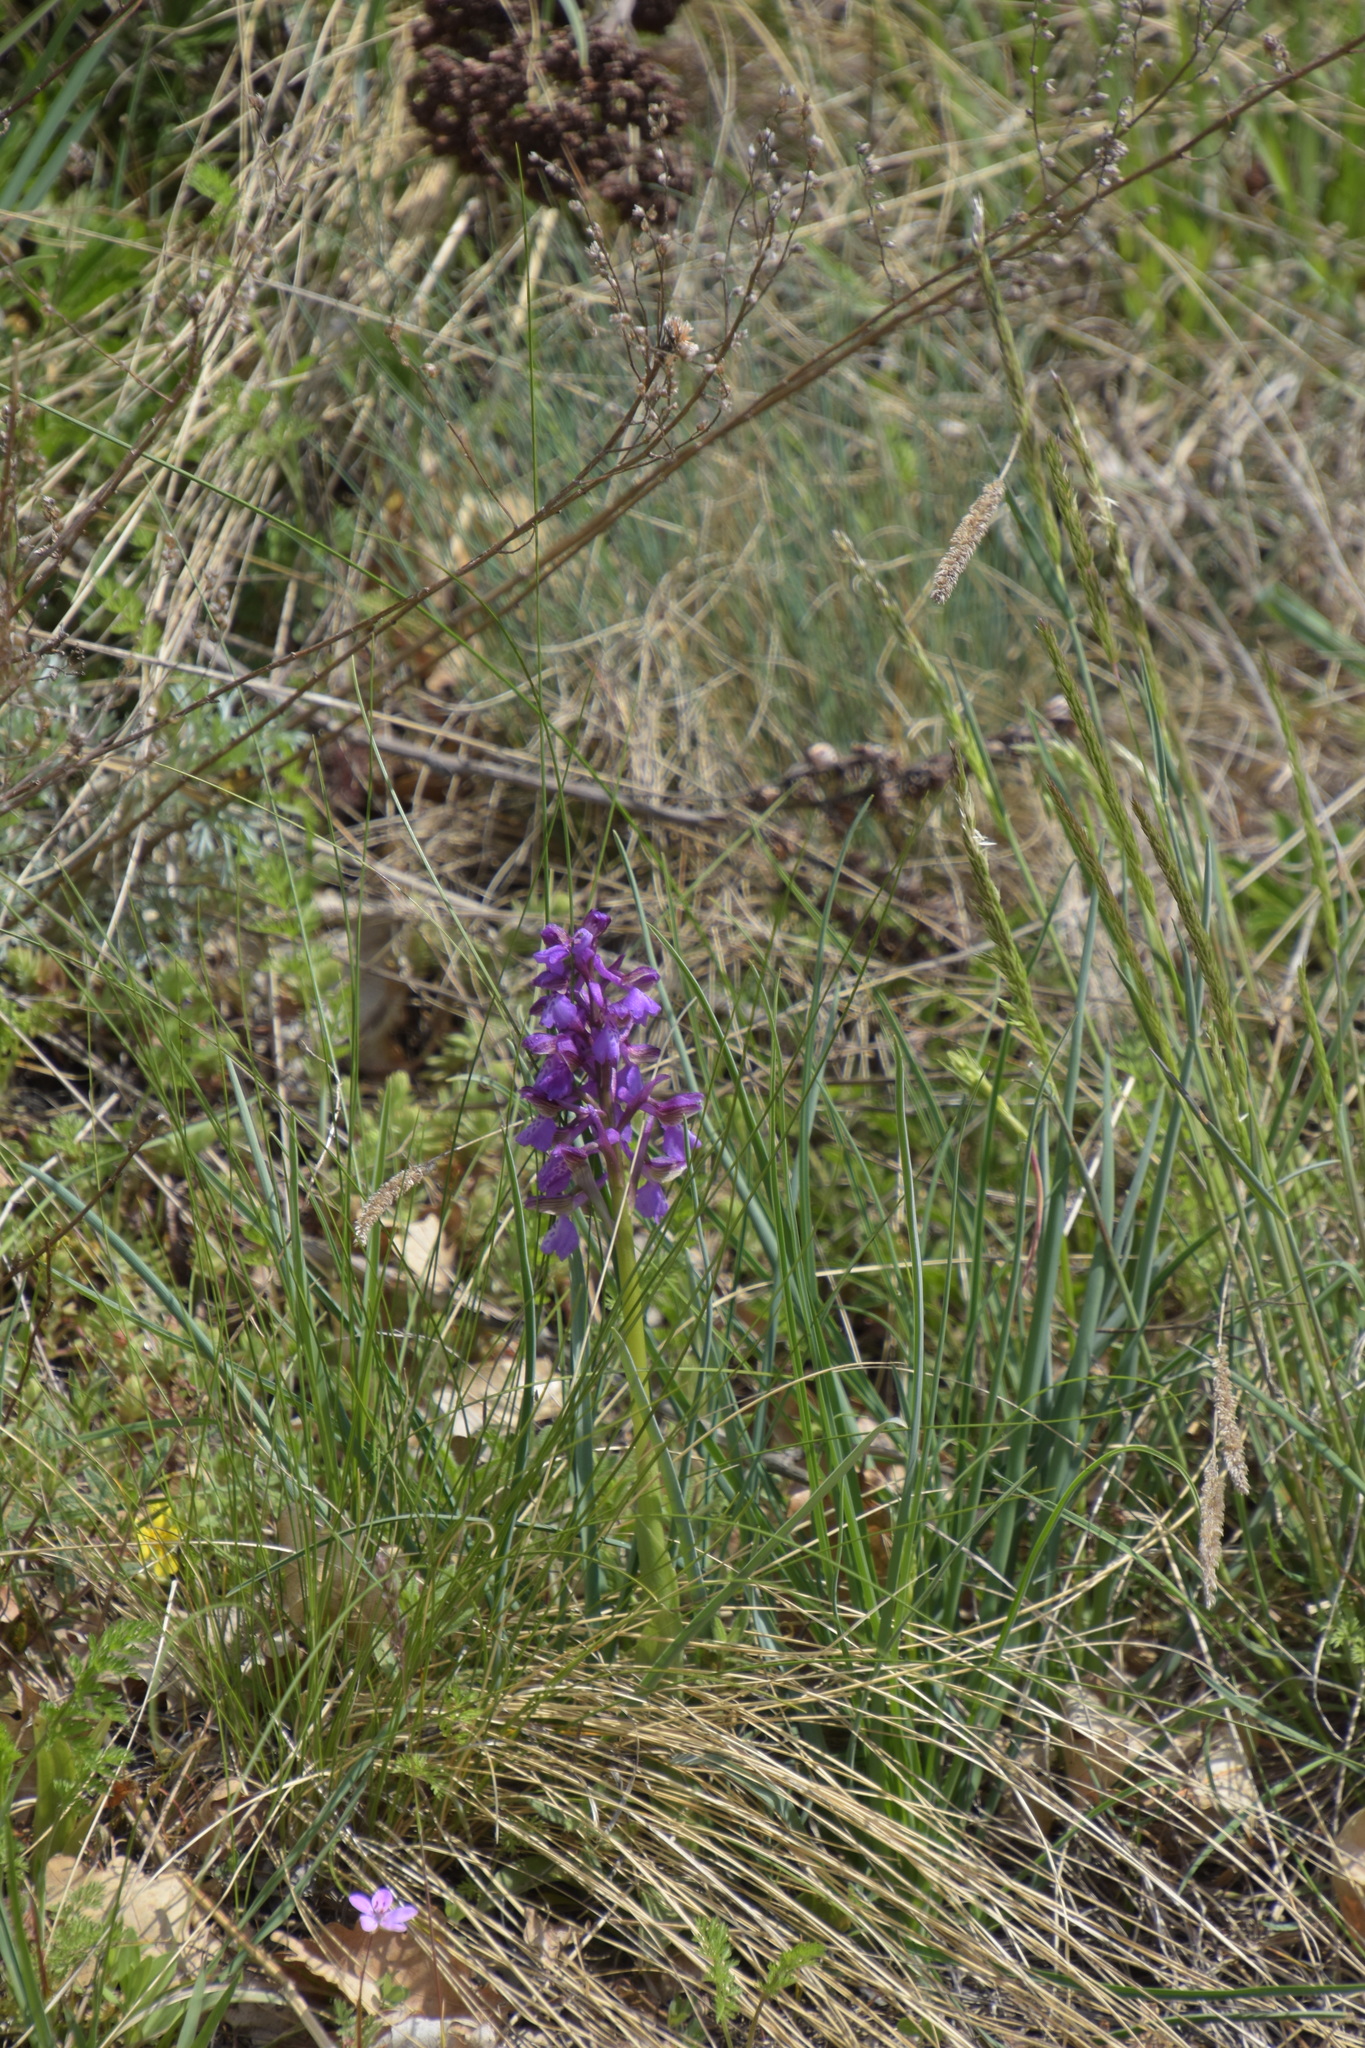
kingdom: Plantae
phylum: Tracheophyta
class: Liliopsida
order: Asparagales
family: Orchidaceae
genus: Anacamptis
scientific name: Anacamptis morio
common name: Green-winged orchid
